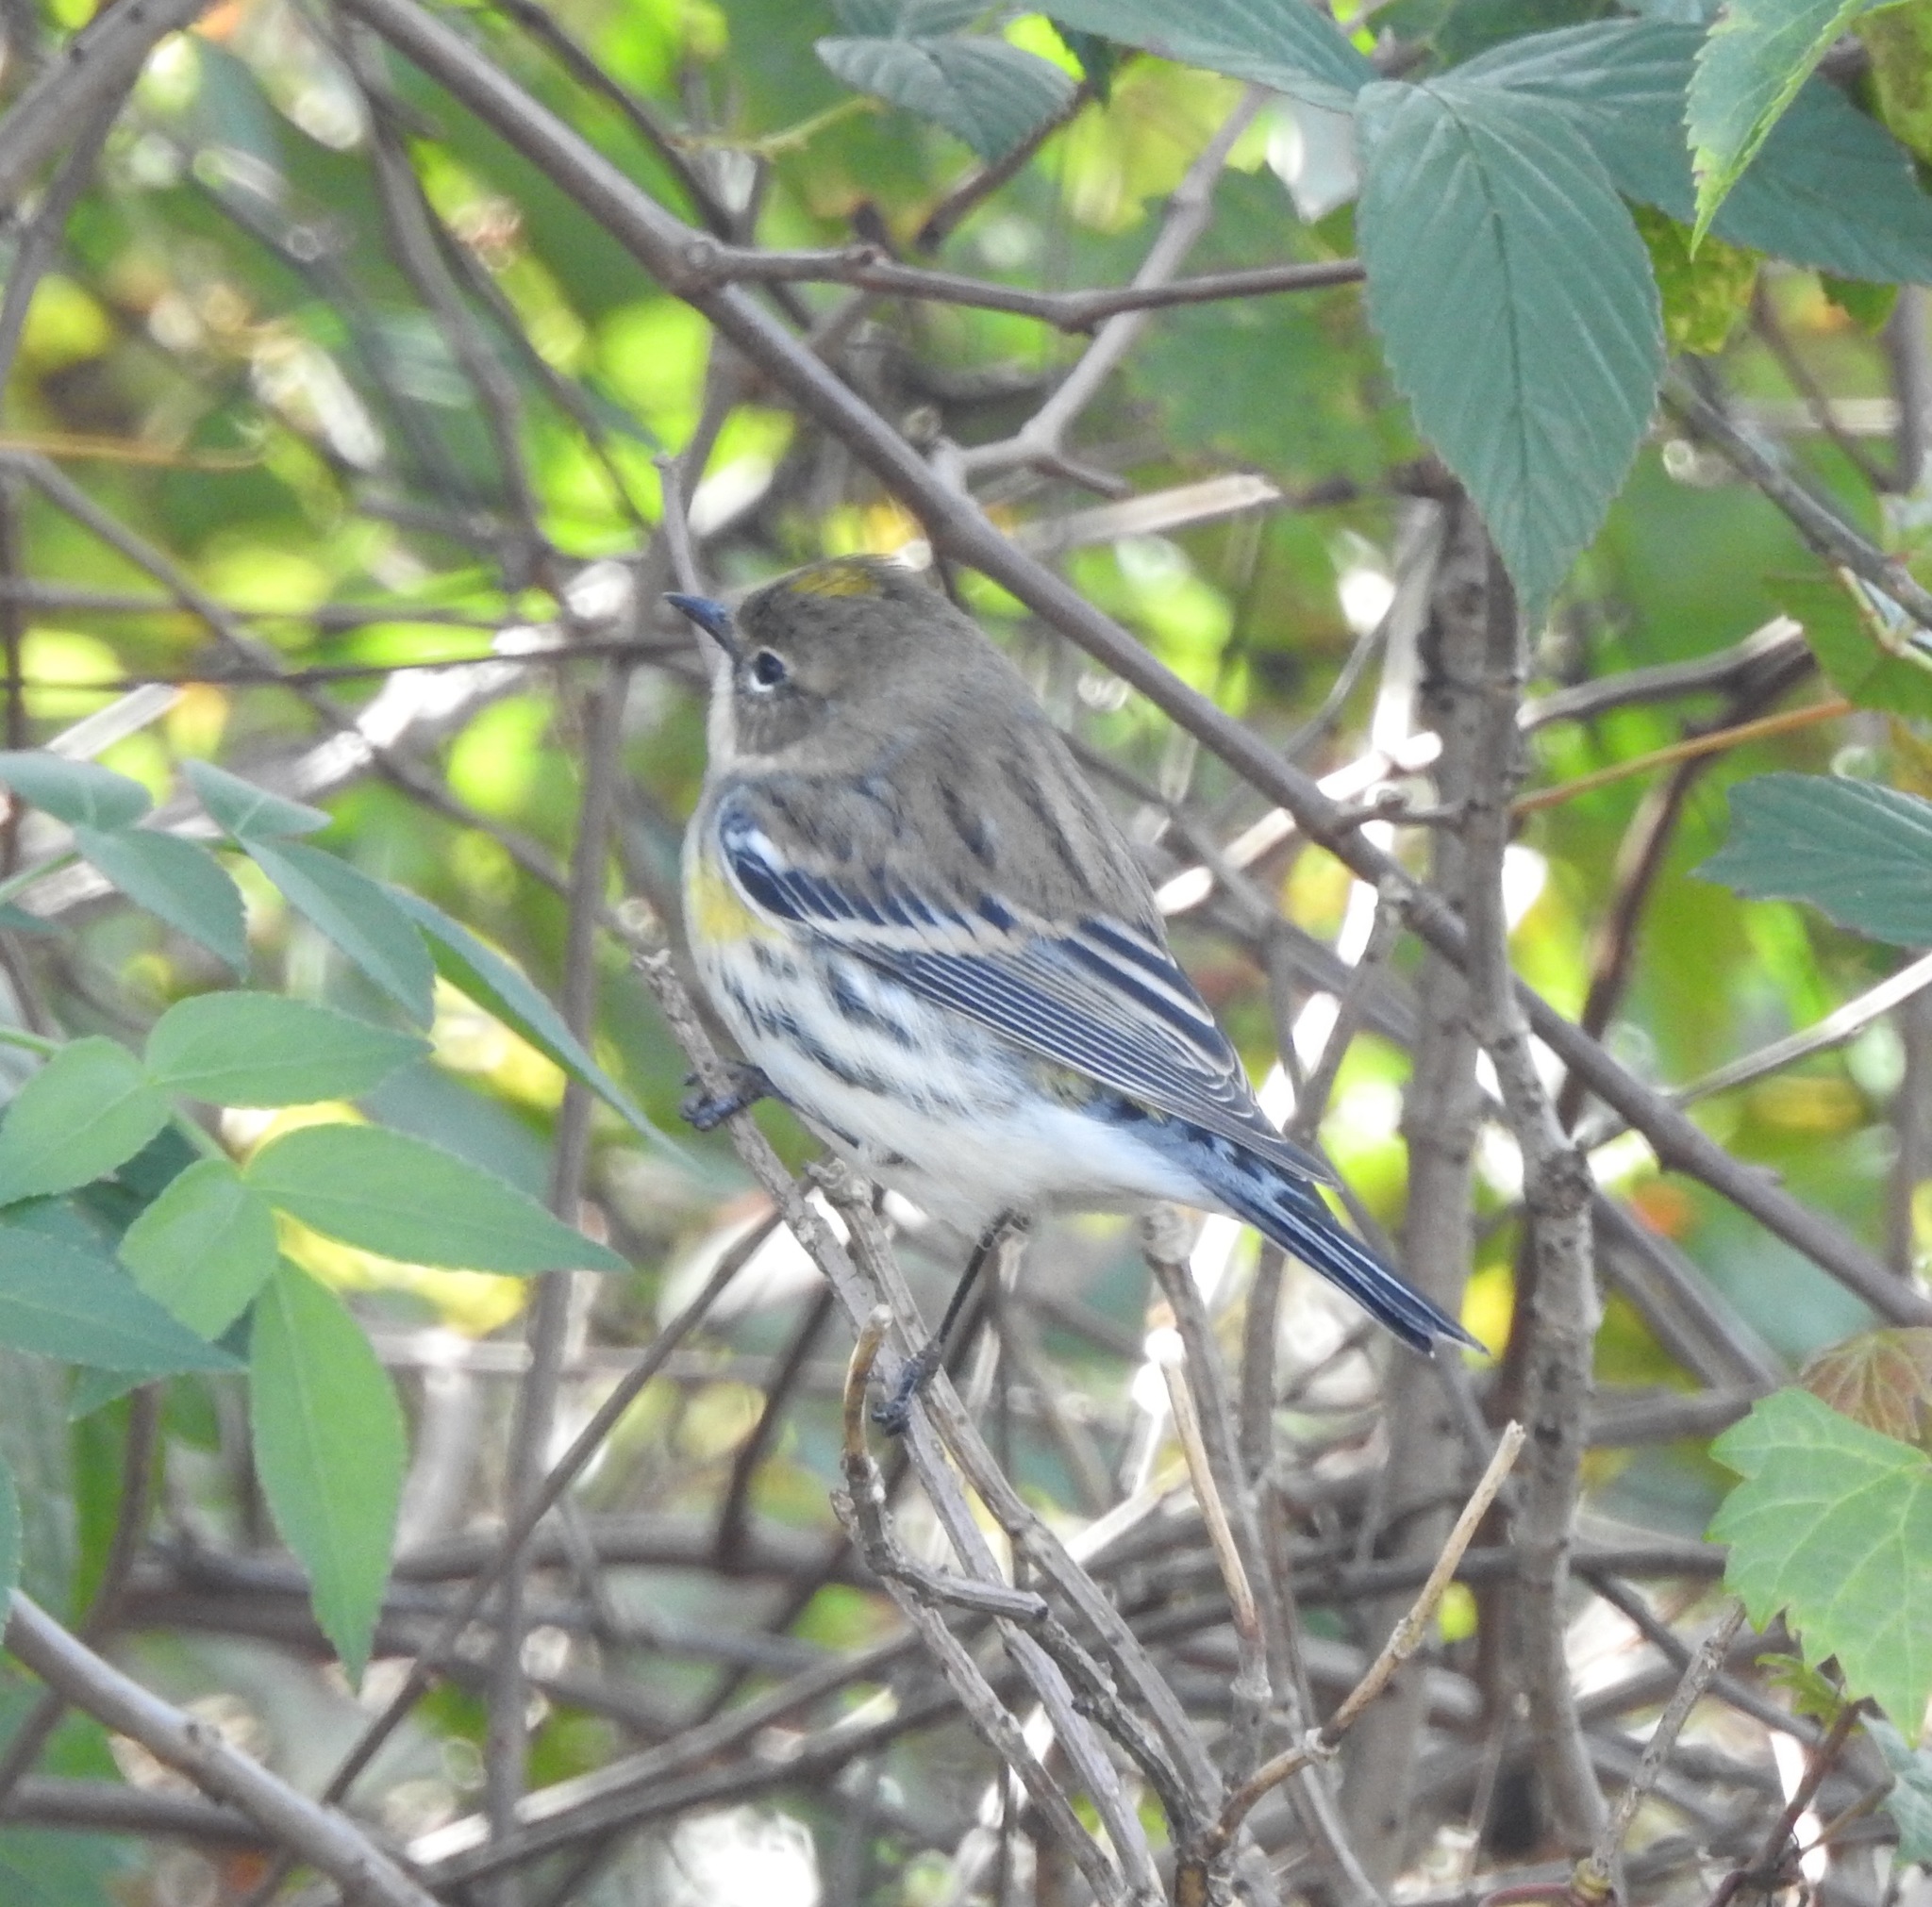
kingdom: Animalia
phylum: Chordata
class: Aves
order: Passeriformes
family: Parulidae
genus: Setophaga
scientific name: Setophaga coronata
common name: Myrtle warbler
